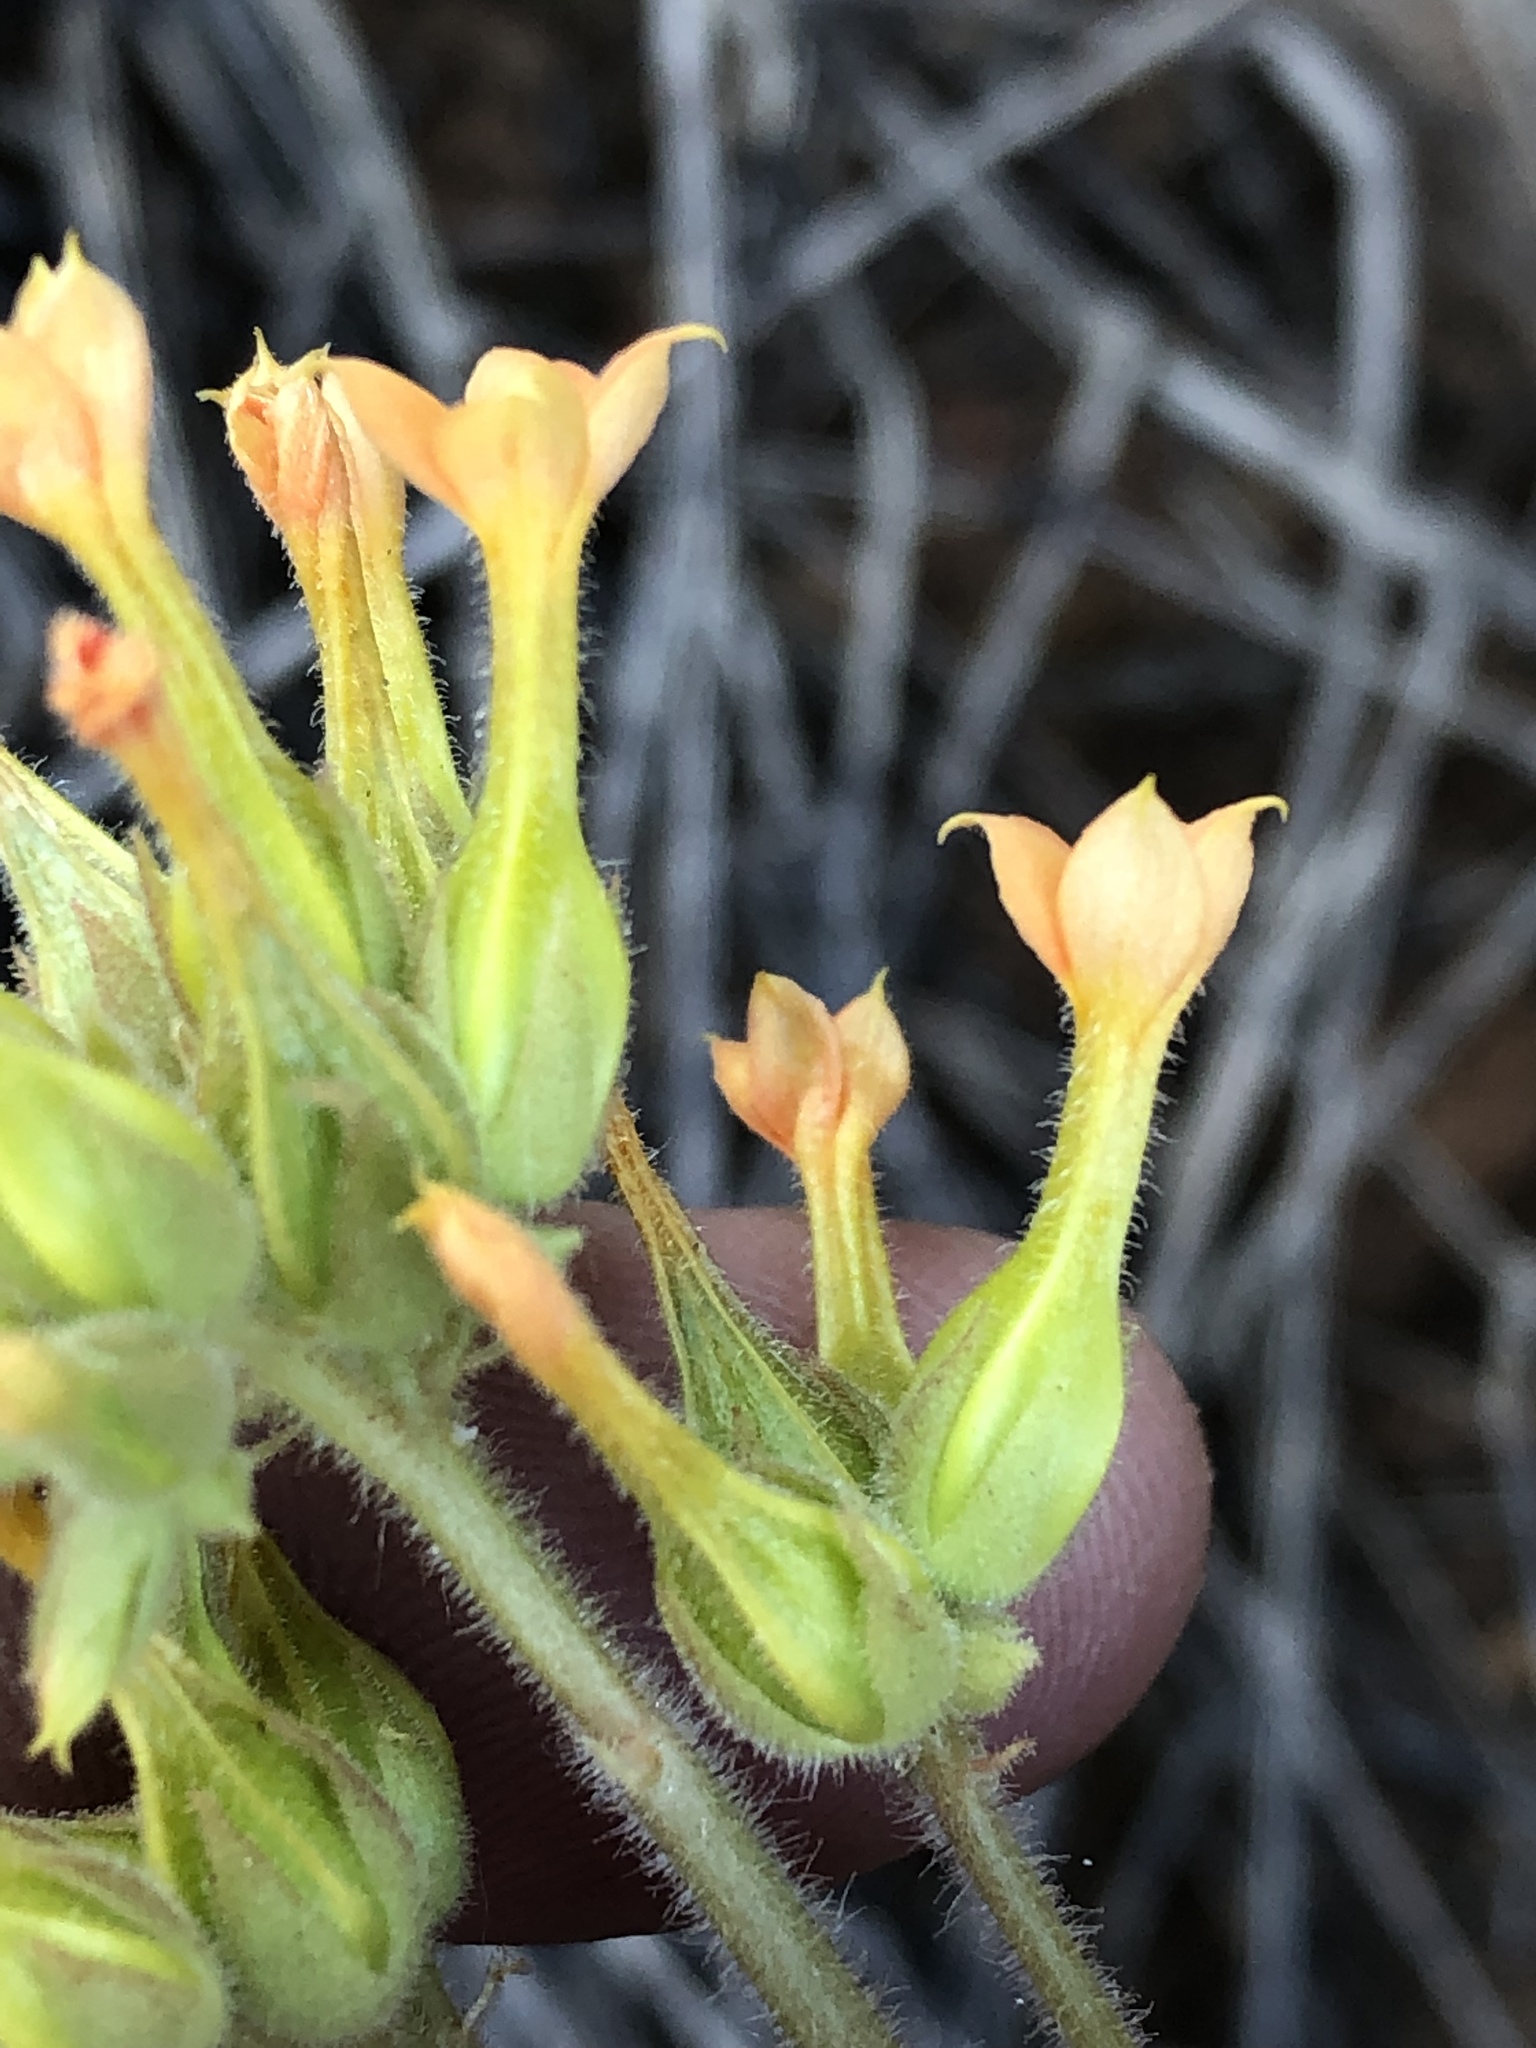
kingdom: Plantae
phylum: Tracheophyta
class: Magnoliopsida
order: Saxifragales
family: Crassulaceae
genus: Kalanchoe
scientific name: Kalanchoe lanceolata
